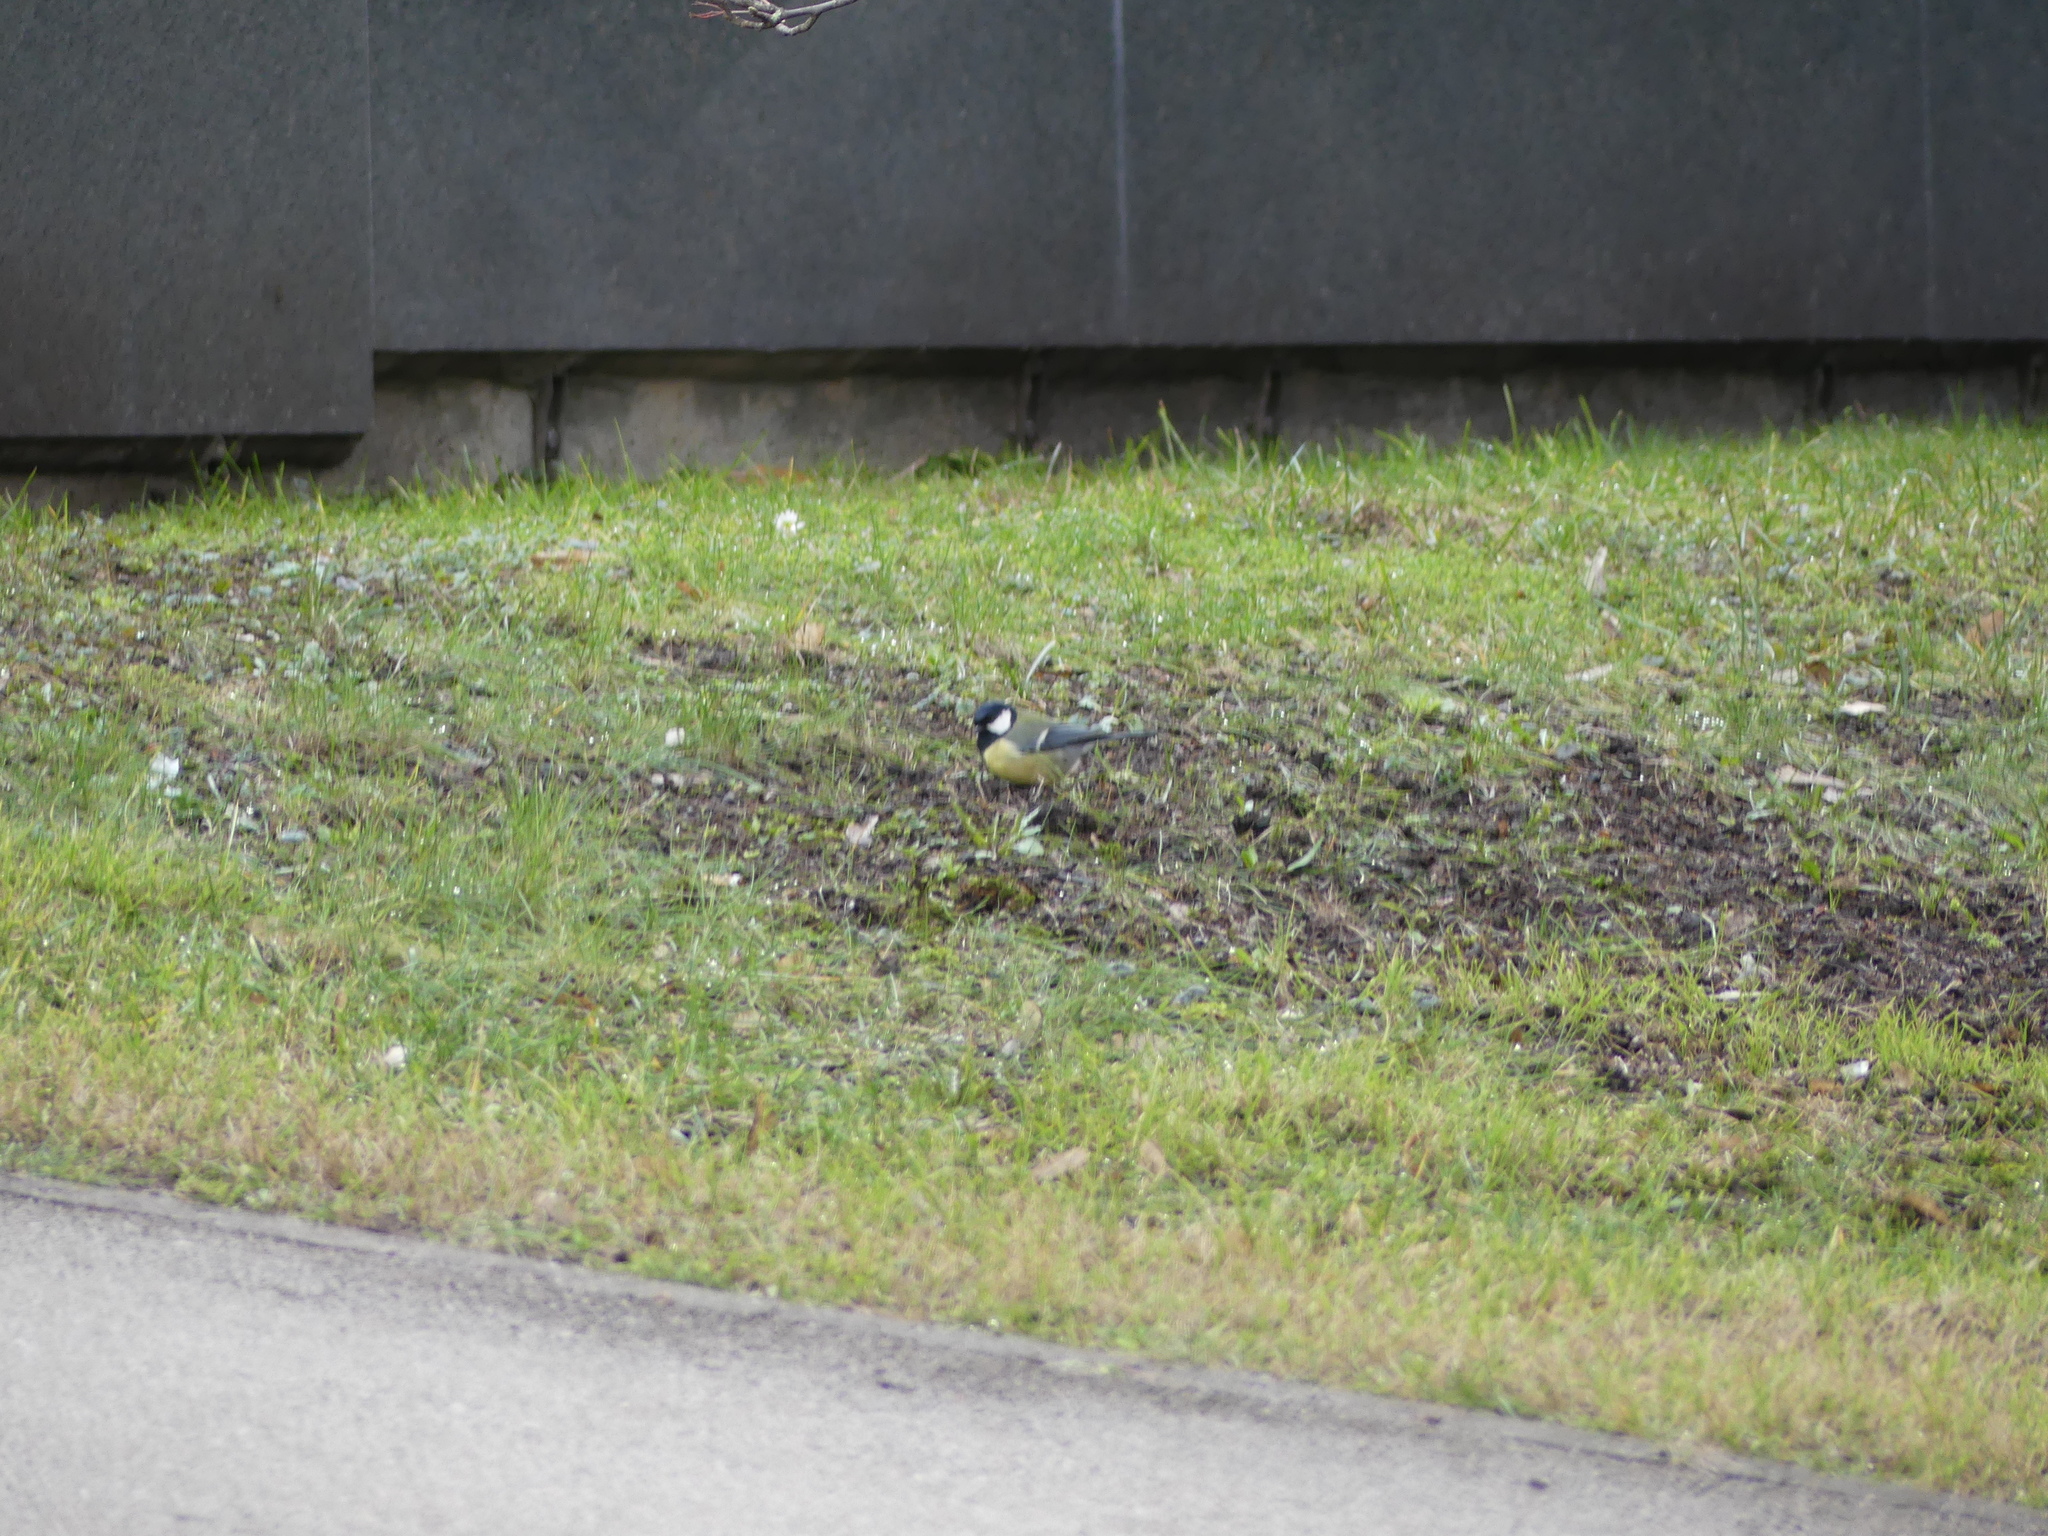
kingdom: Animalia
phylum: Chordata
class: Aves
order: Passeriformes
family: Paridae
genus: Parus
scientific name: Parus major
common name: Great tit
